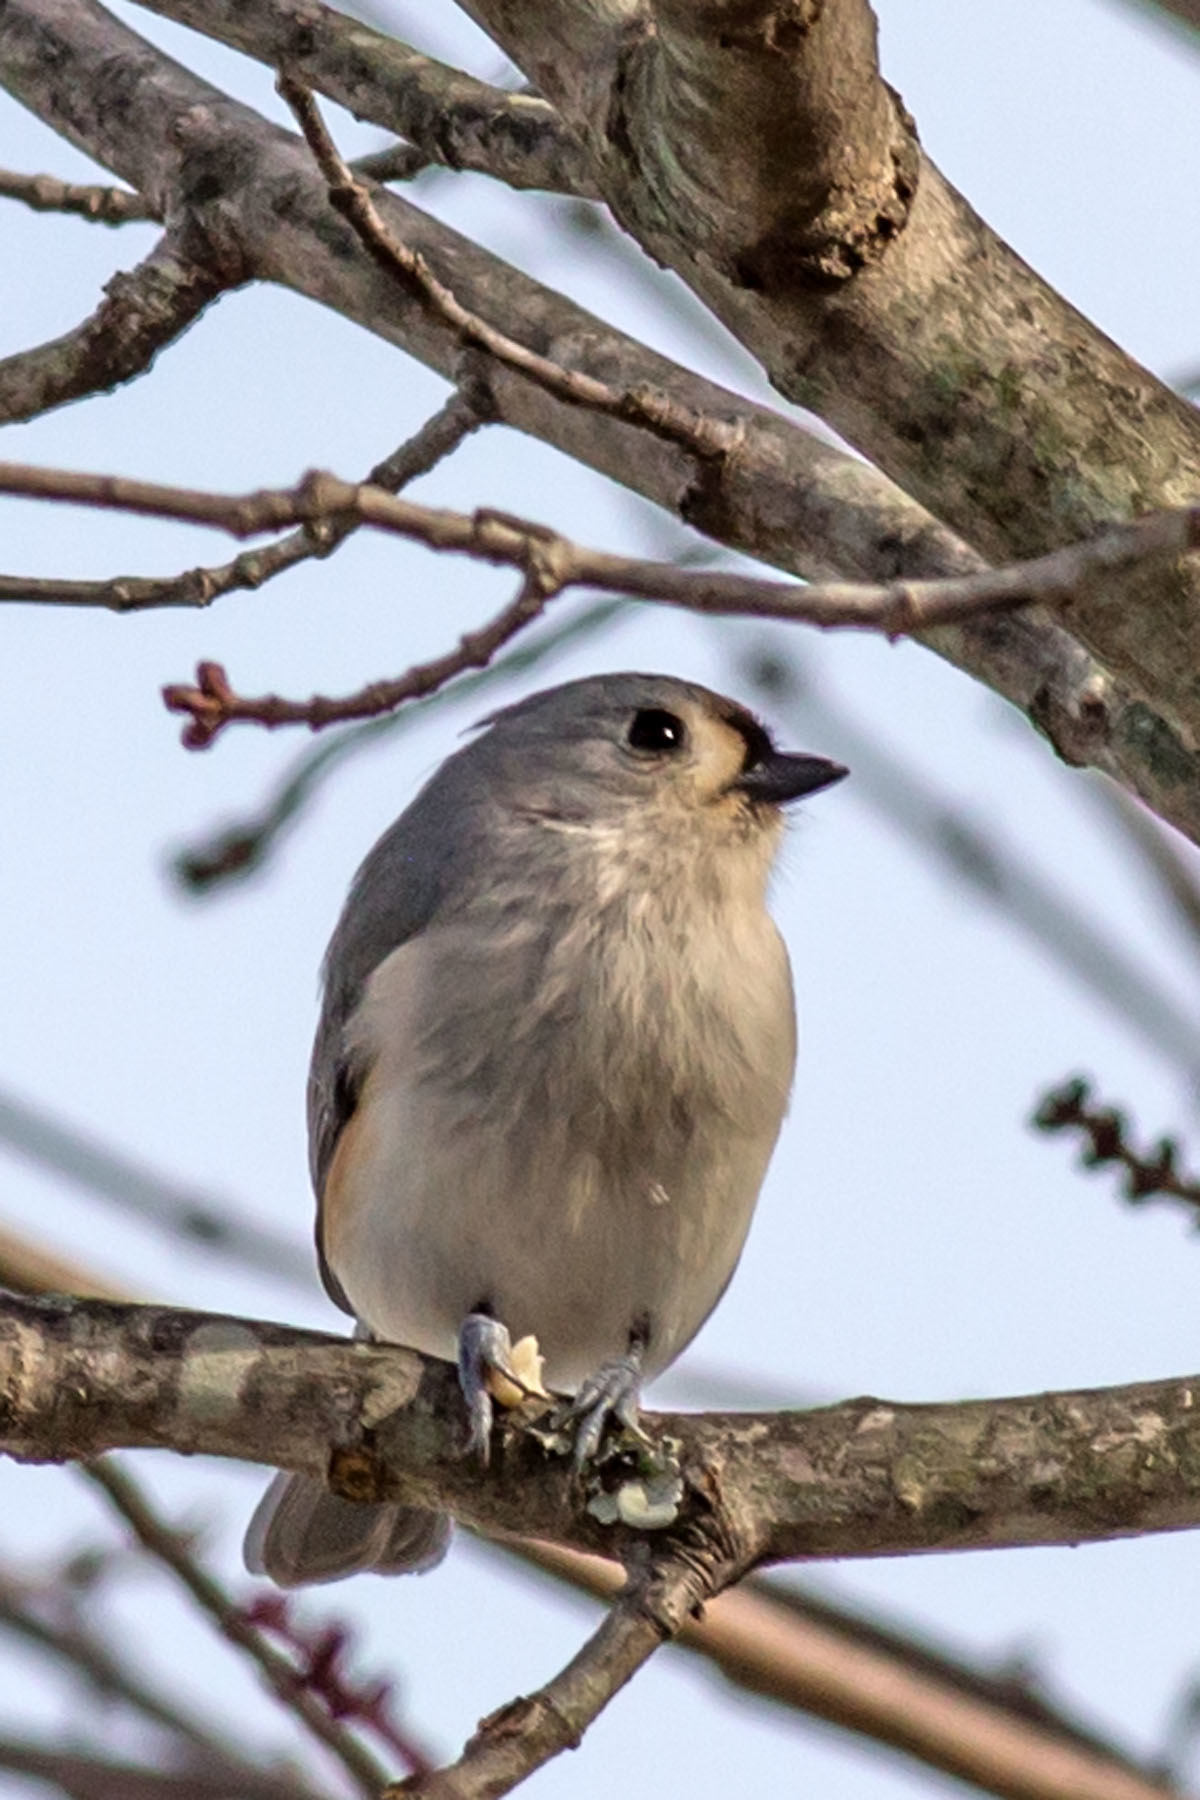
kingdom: Animalia
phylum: Chordata
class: Aves
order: Passeriformes
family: Paridae
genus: Baeolophus
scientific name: Baeolophus bicolor
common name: Tufted titmouse
